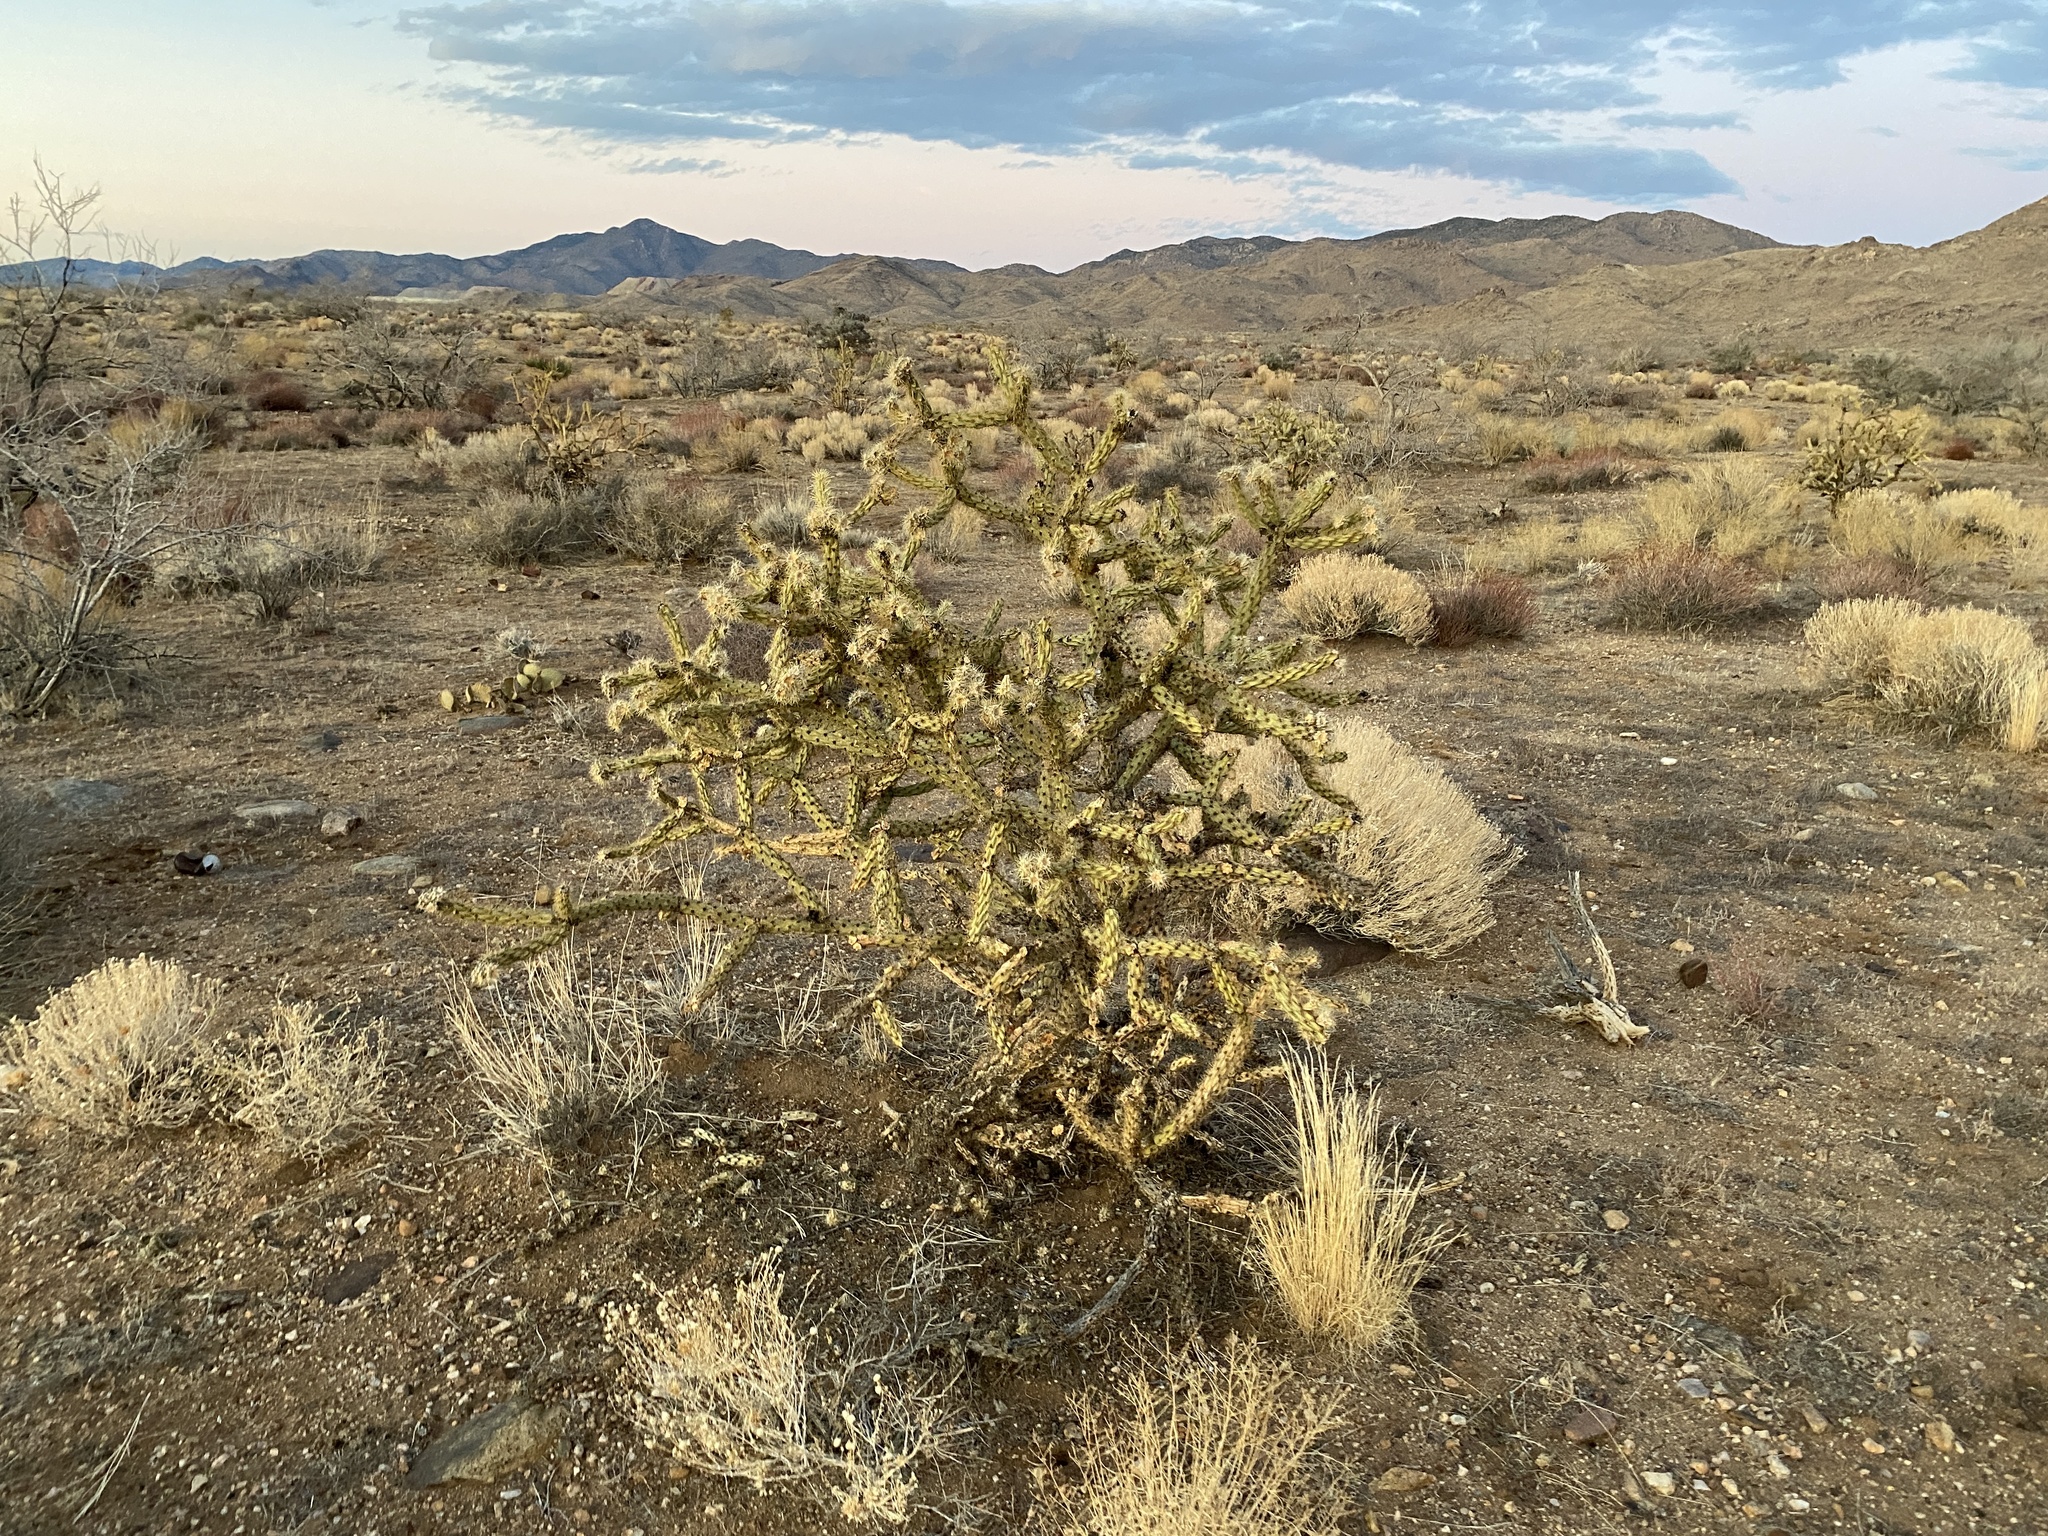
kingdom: Plantae
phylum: Tracheophyta
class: Magnoliopsida
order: Caryophyllales
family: Cactaceae
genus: Cylindropuntia
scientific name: Cylindropuntia acanthocarpa
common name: Buckhorn cholla
